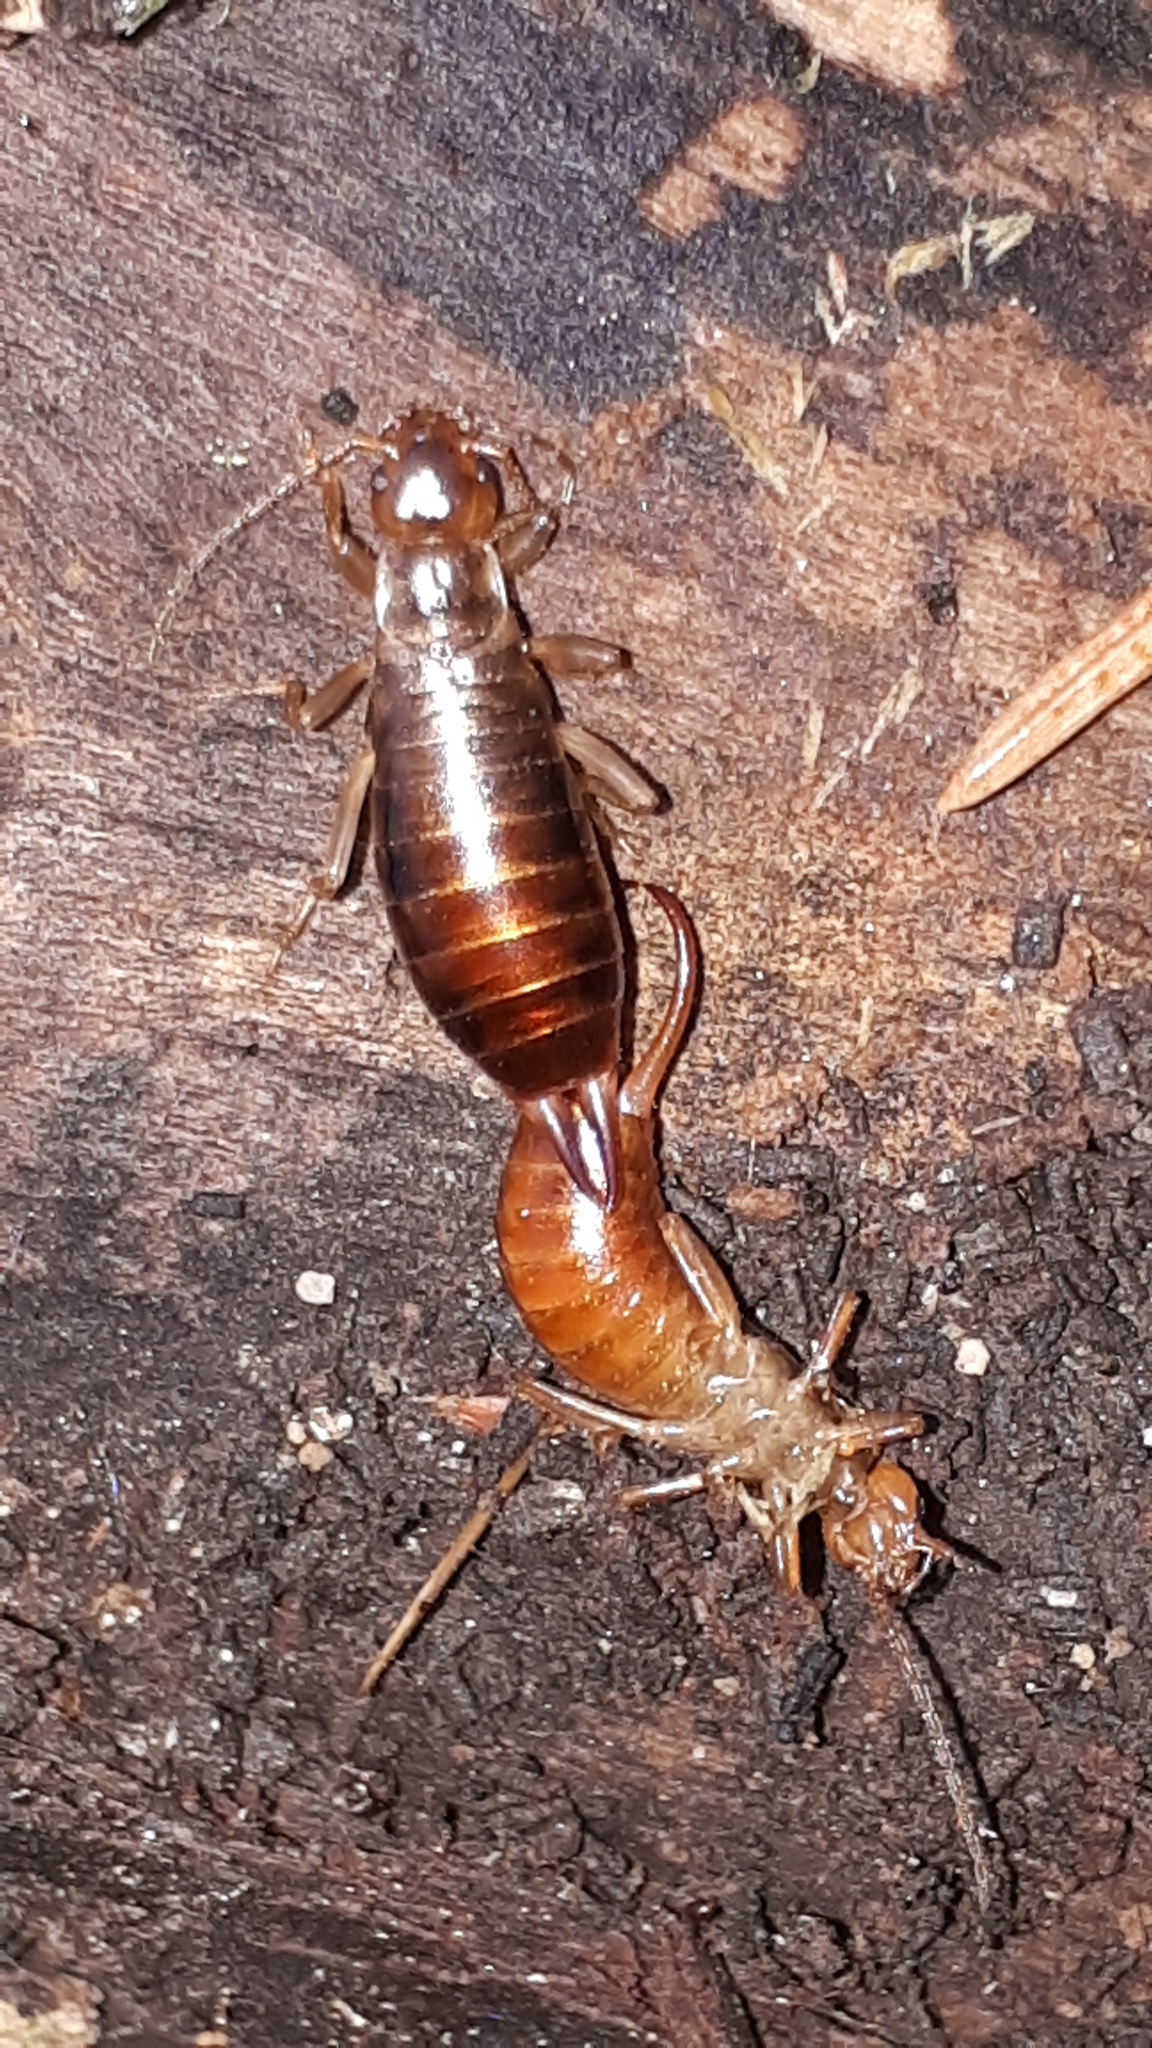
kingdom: Animalia
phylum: Arthropoda
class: Insecta
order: Dermaptera
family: Forficulidae
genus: Chelidurella
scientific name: Chelidurella acanthopygia
